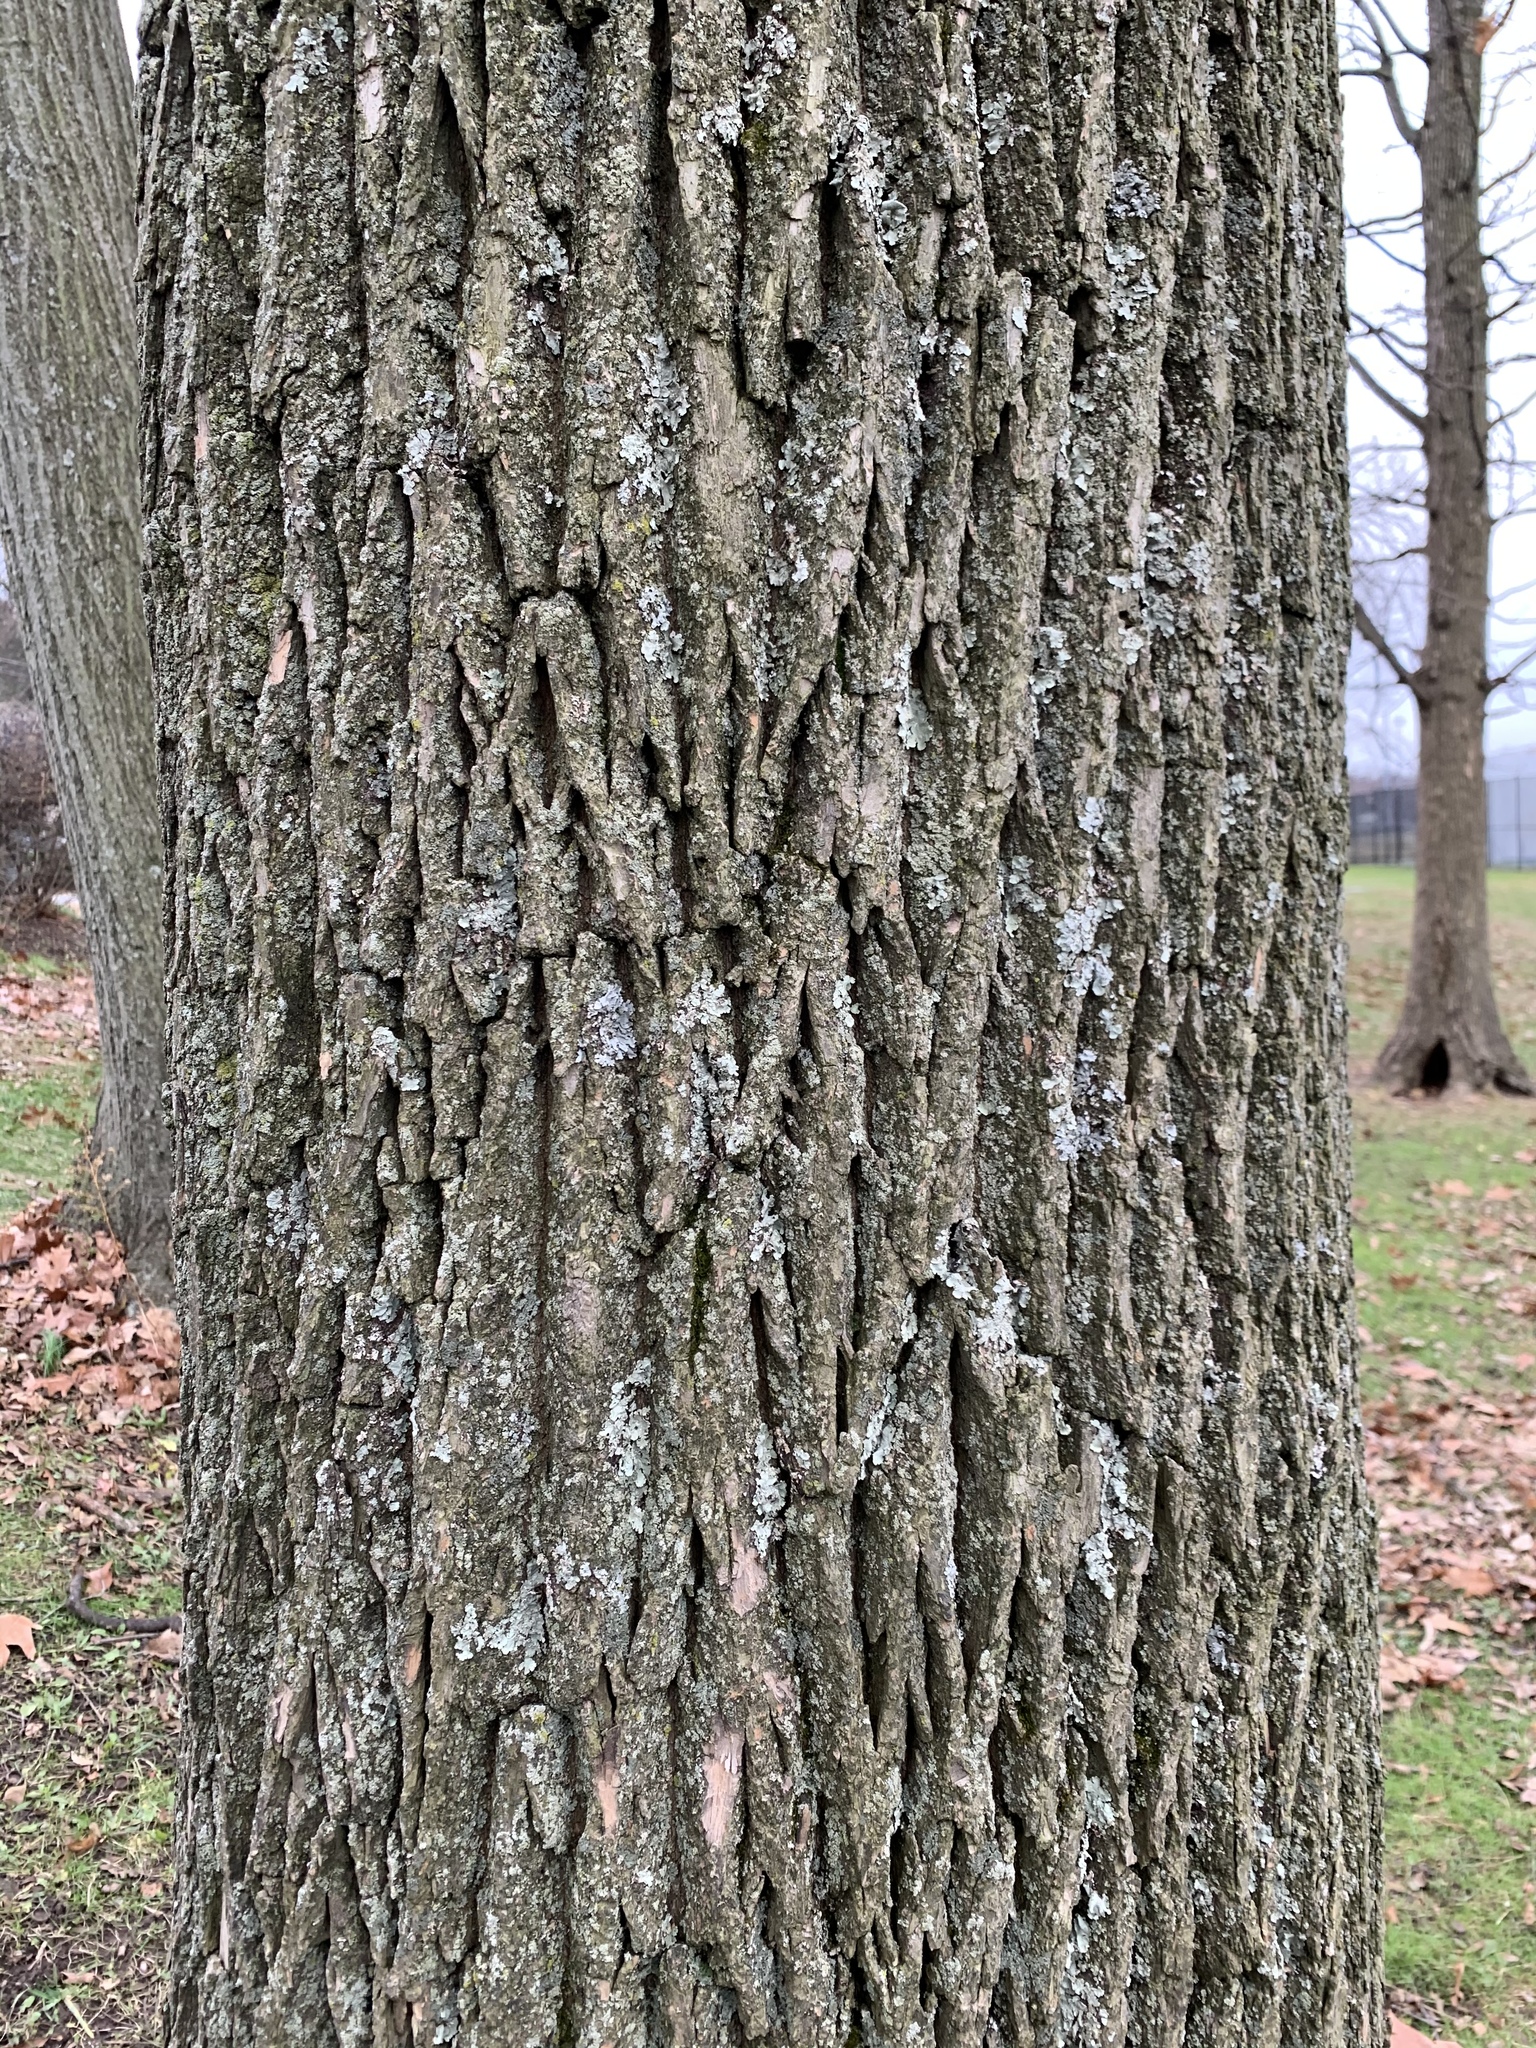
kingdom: Plantae
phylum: Tracheophyta
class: Magnoliopsida
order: Fagales
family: Fagaceae
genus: Quercus
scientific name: Quercus rubra
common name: Red oak
